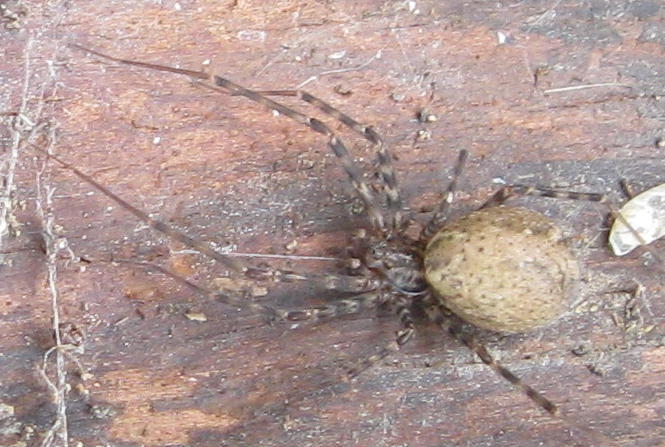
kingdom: Animalia
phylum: Arthropoda
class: Arachnida
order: Araneae
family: Stiphidiidae
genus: Stiphidion
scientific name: Stiphidion facetum
